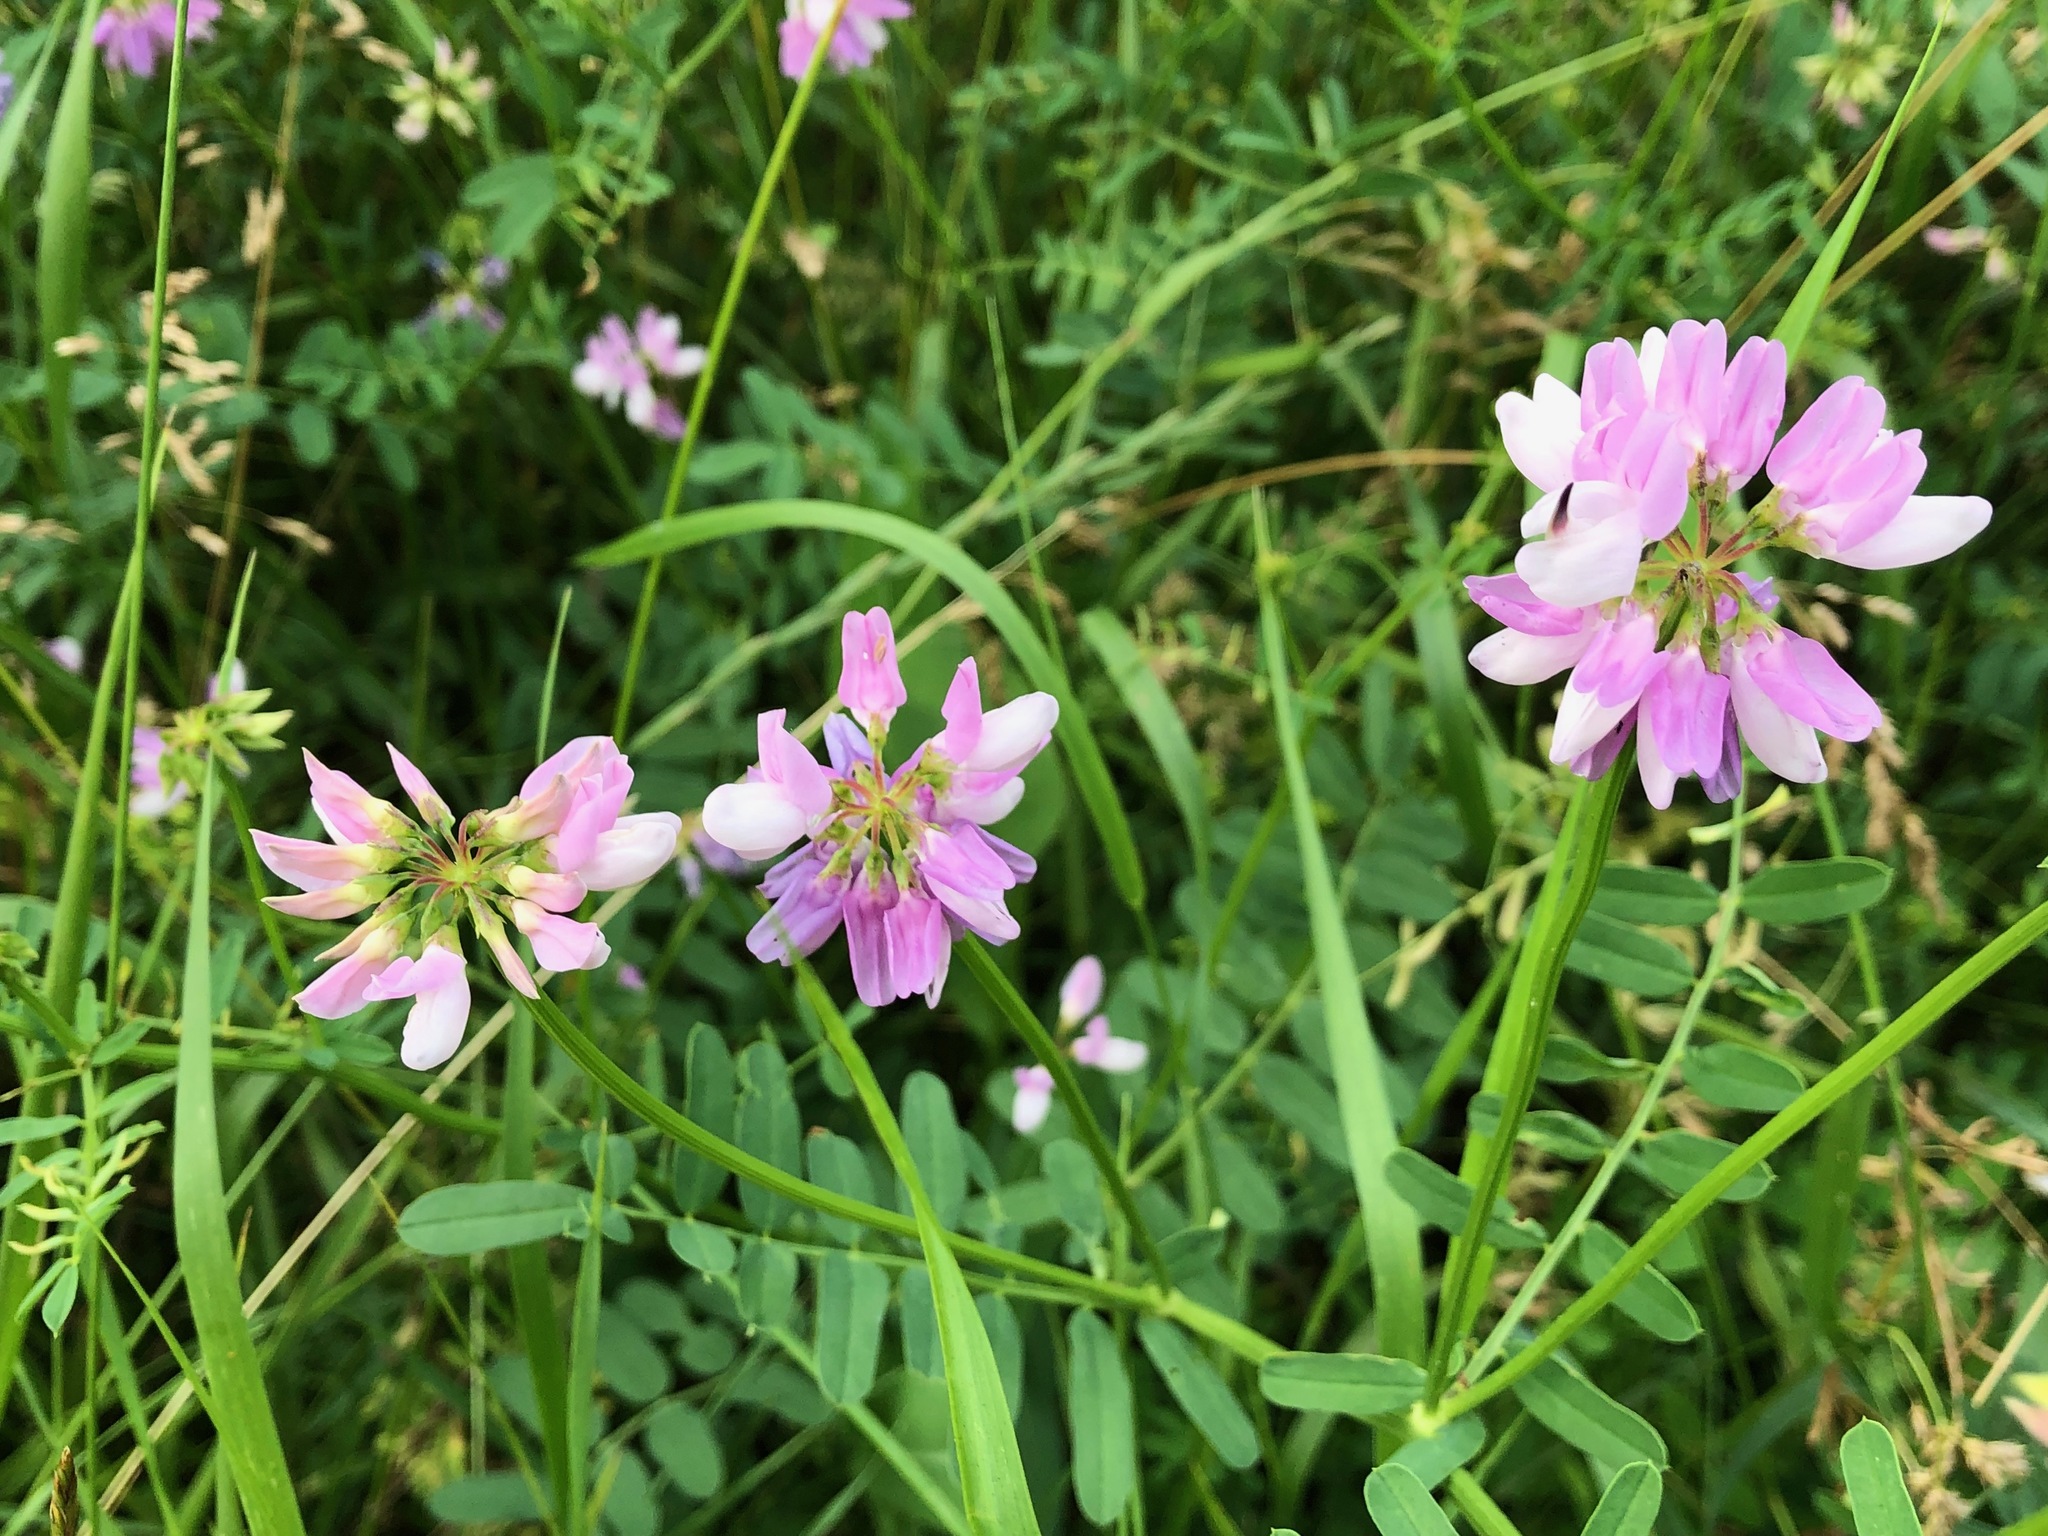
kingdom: Plantae
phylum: Tracheophyta
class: Magnoliopsida
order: Fabales
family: Fabaceae
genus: Coronilla
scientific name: Coronilla varia
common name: Crownvetch
